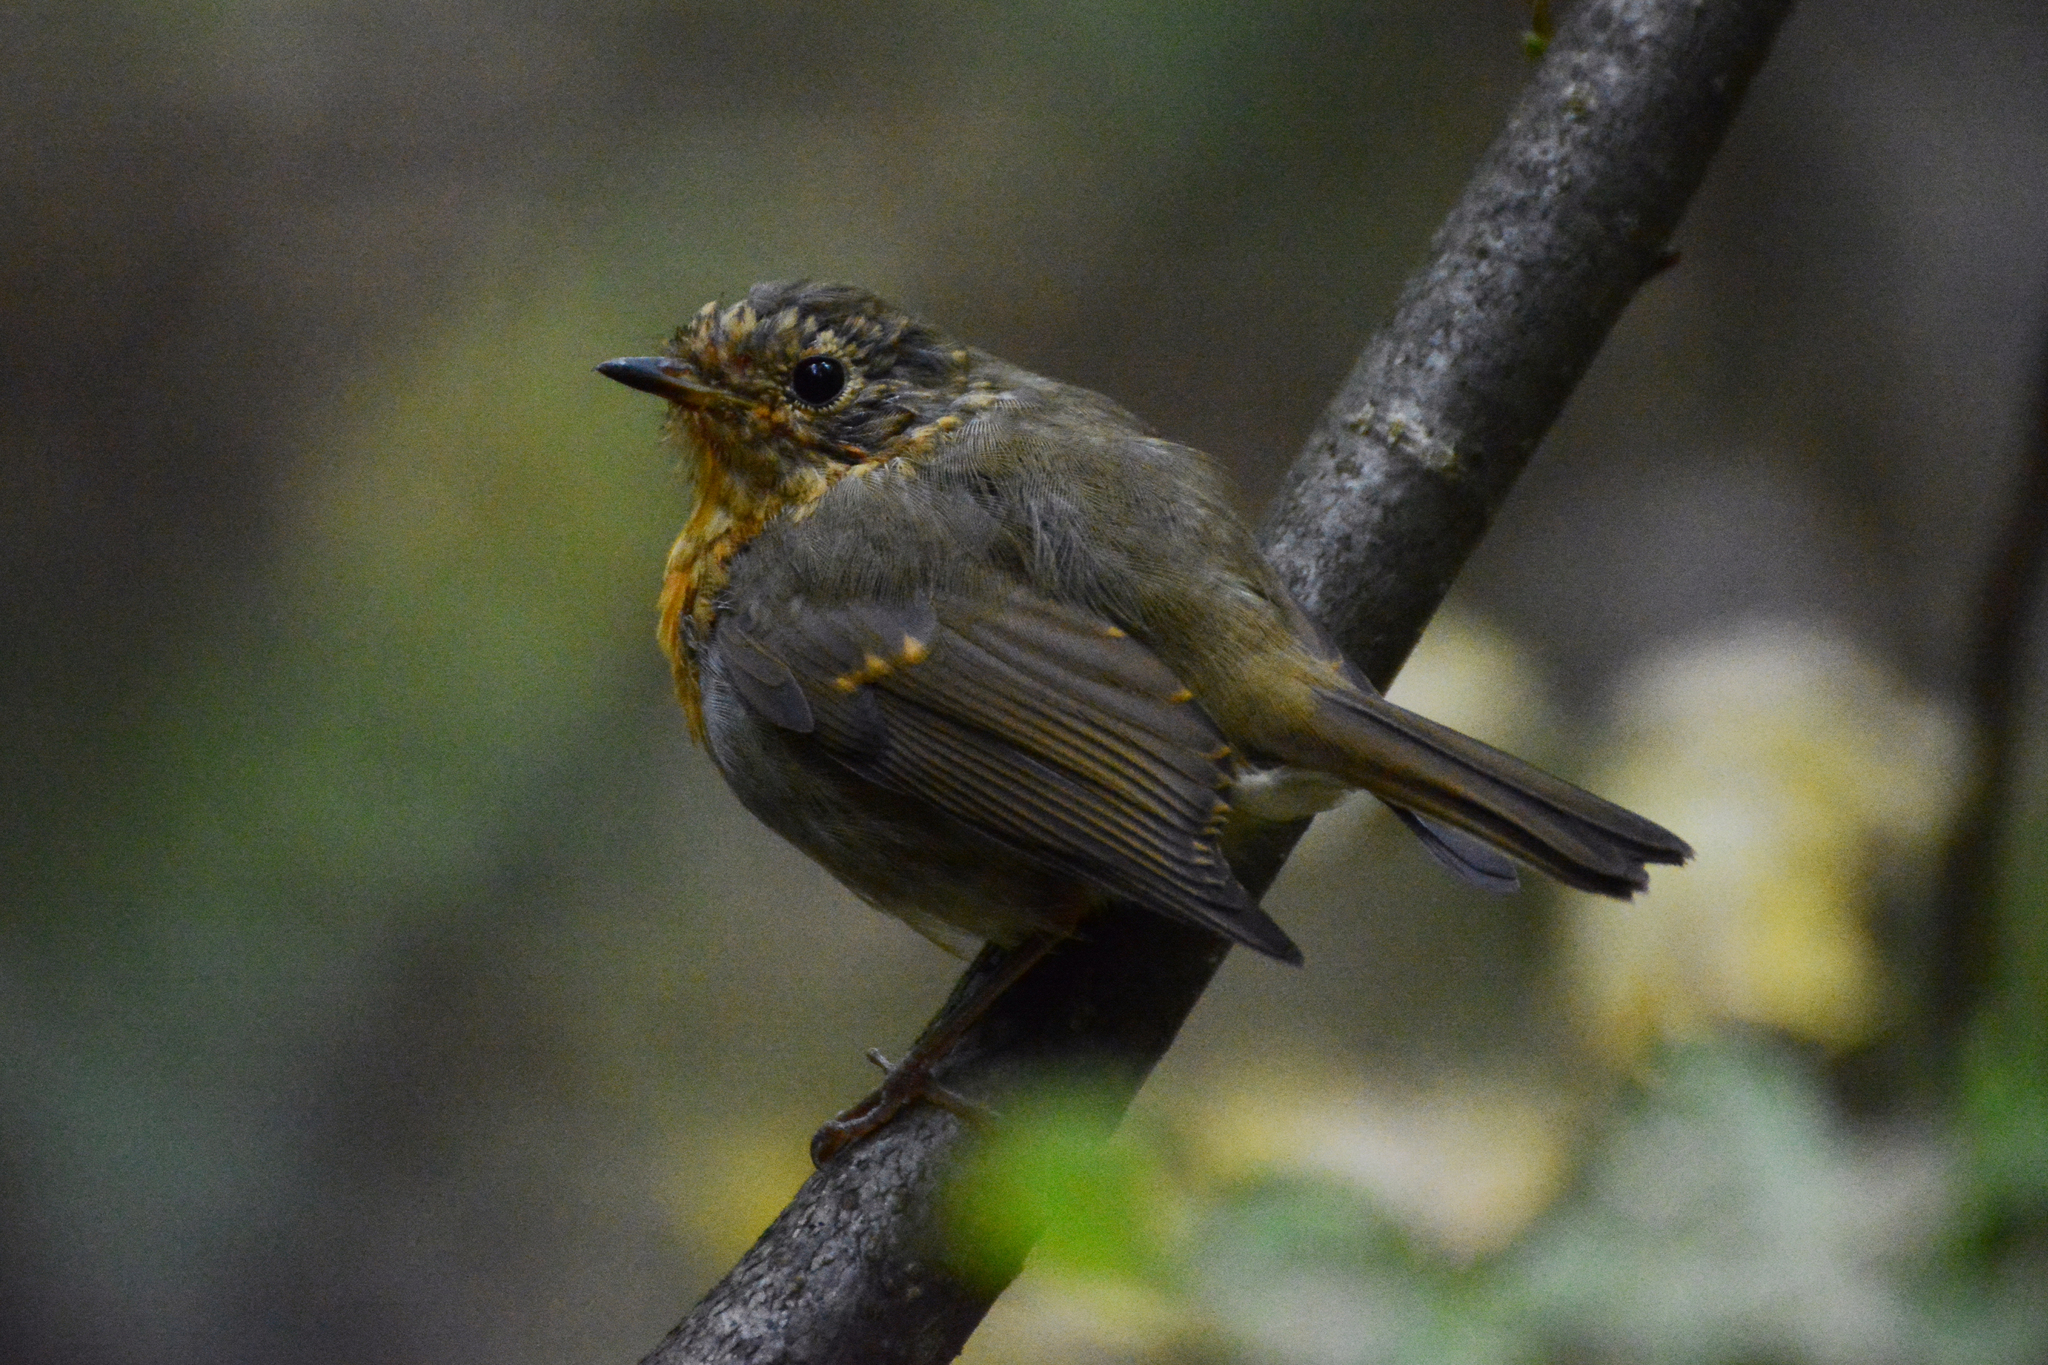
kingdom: Animalia
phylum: Chordata
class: Aves
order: Passeriformes
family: Muscicapidae
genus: Erithacus
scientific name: Erithacus rubecula
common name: European robin
